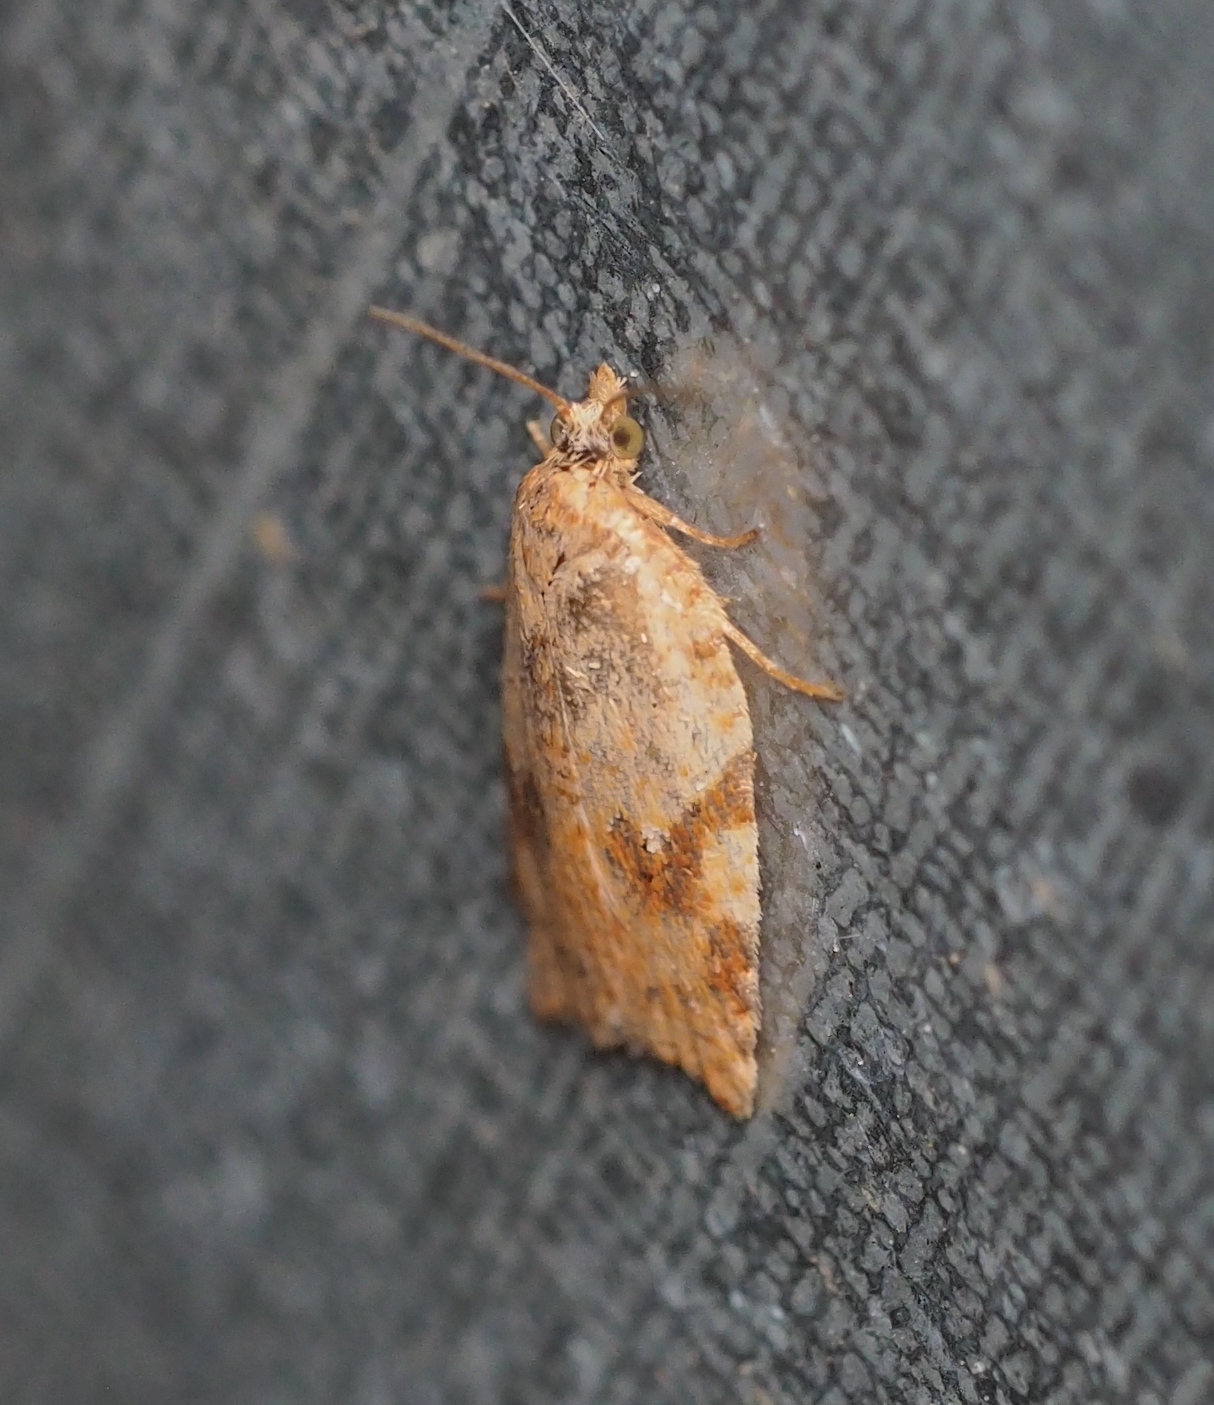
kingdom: Animalia
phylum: Arthropoda
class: Insecta
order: Lepidoptera
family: Tortricidae
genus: Paramesia
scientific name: Paramesia gnomana
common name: Small straw twist
